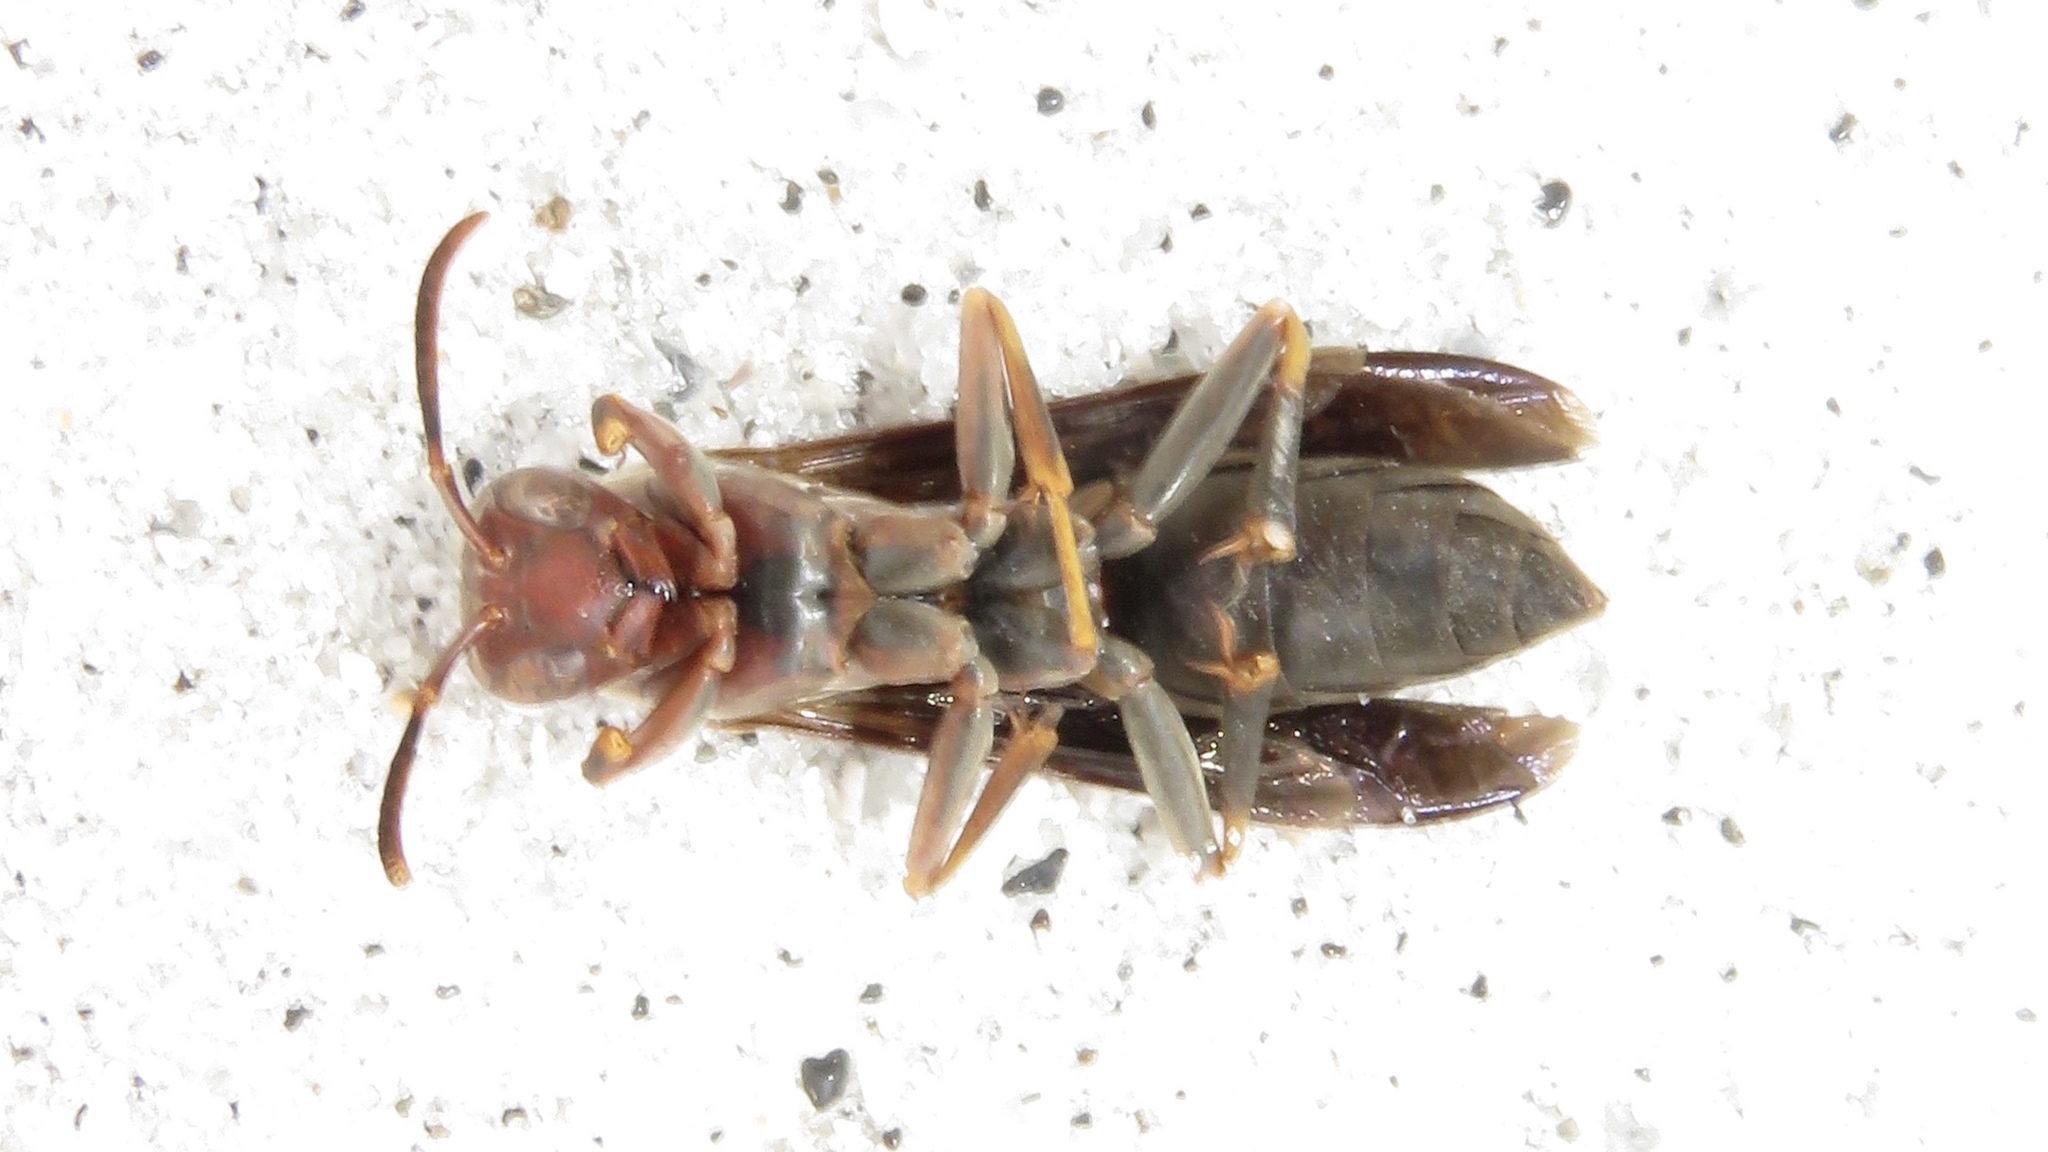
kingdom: Animalia
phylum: Arthropoda
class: Insecta
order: Hymenoptera
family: Eumenidae
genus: Polistes
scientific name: Polistes metricus
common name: Metric paper wasp
